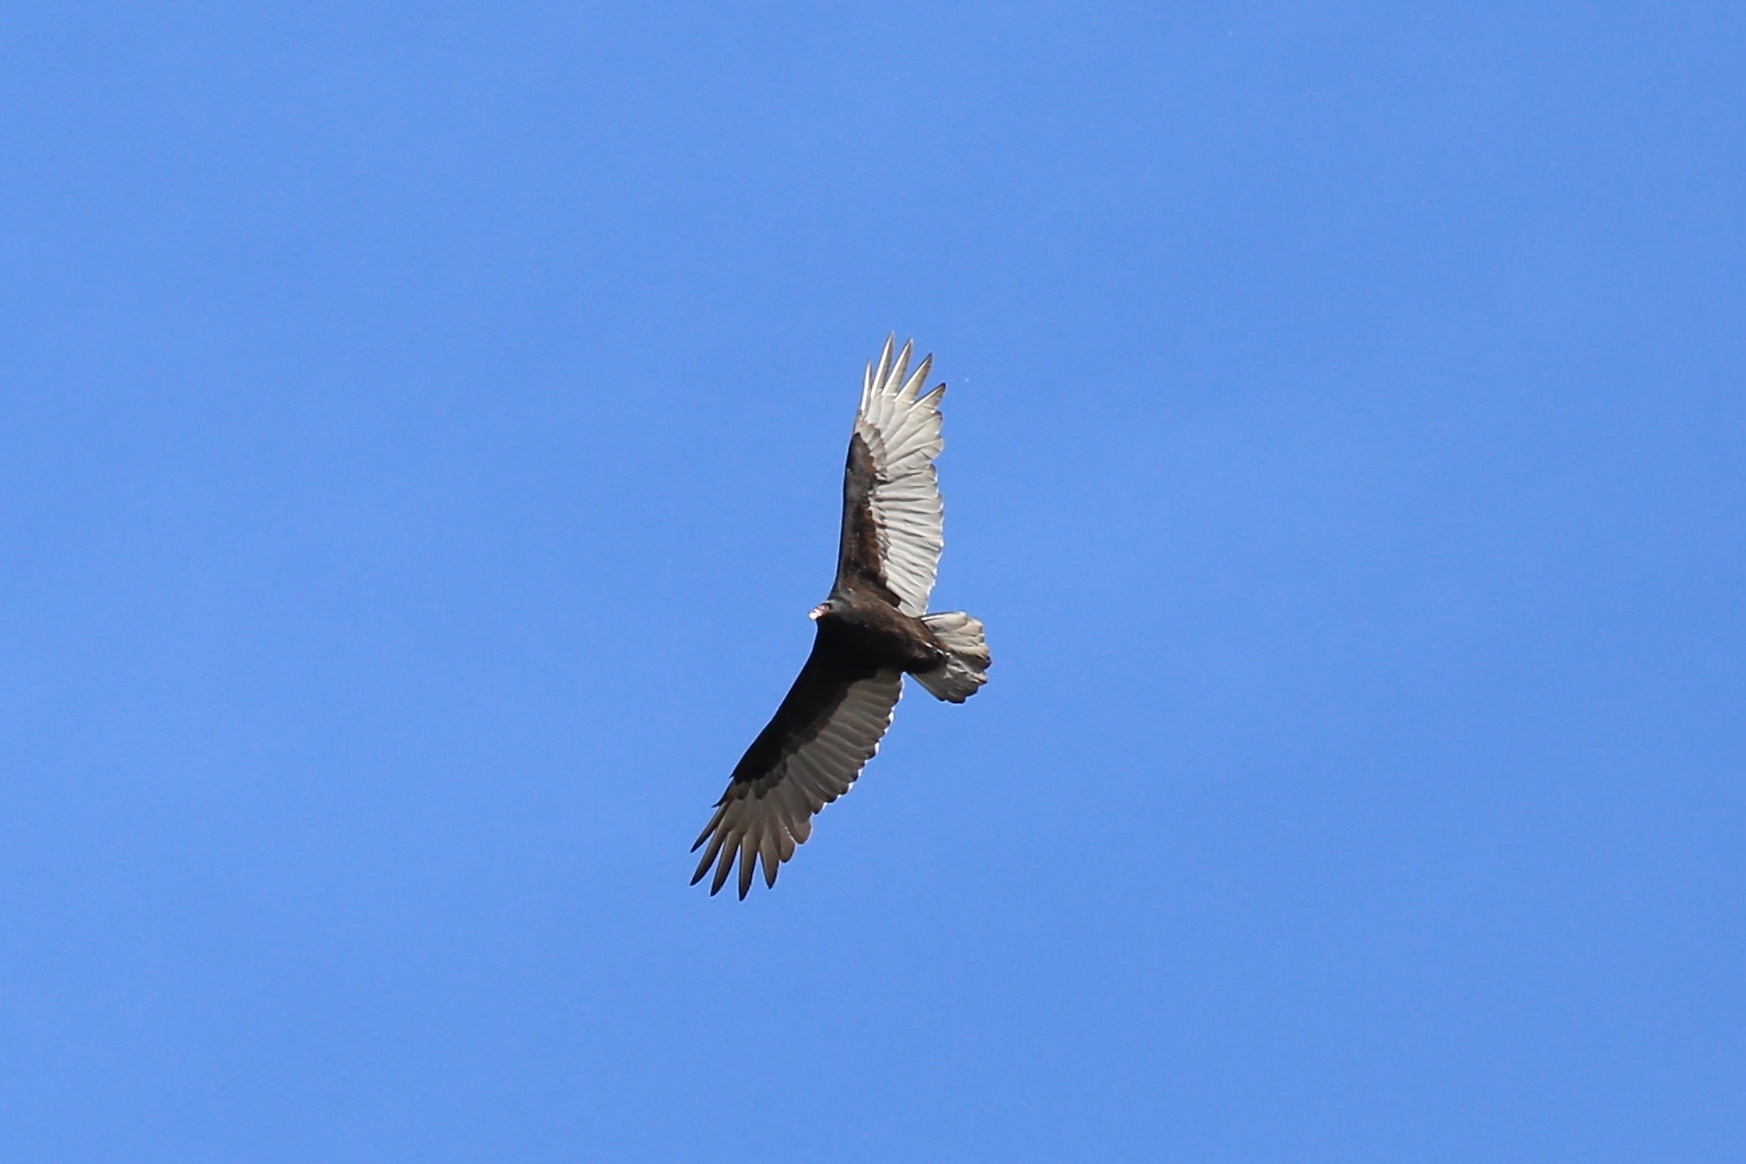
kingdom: Animalia
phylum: Chordata
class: Aves
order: Accipitriformes
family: Cathartidae
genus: Cathartes
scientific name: Cathartes aura
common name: Turkey vulture
